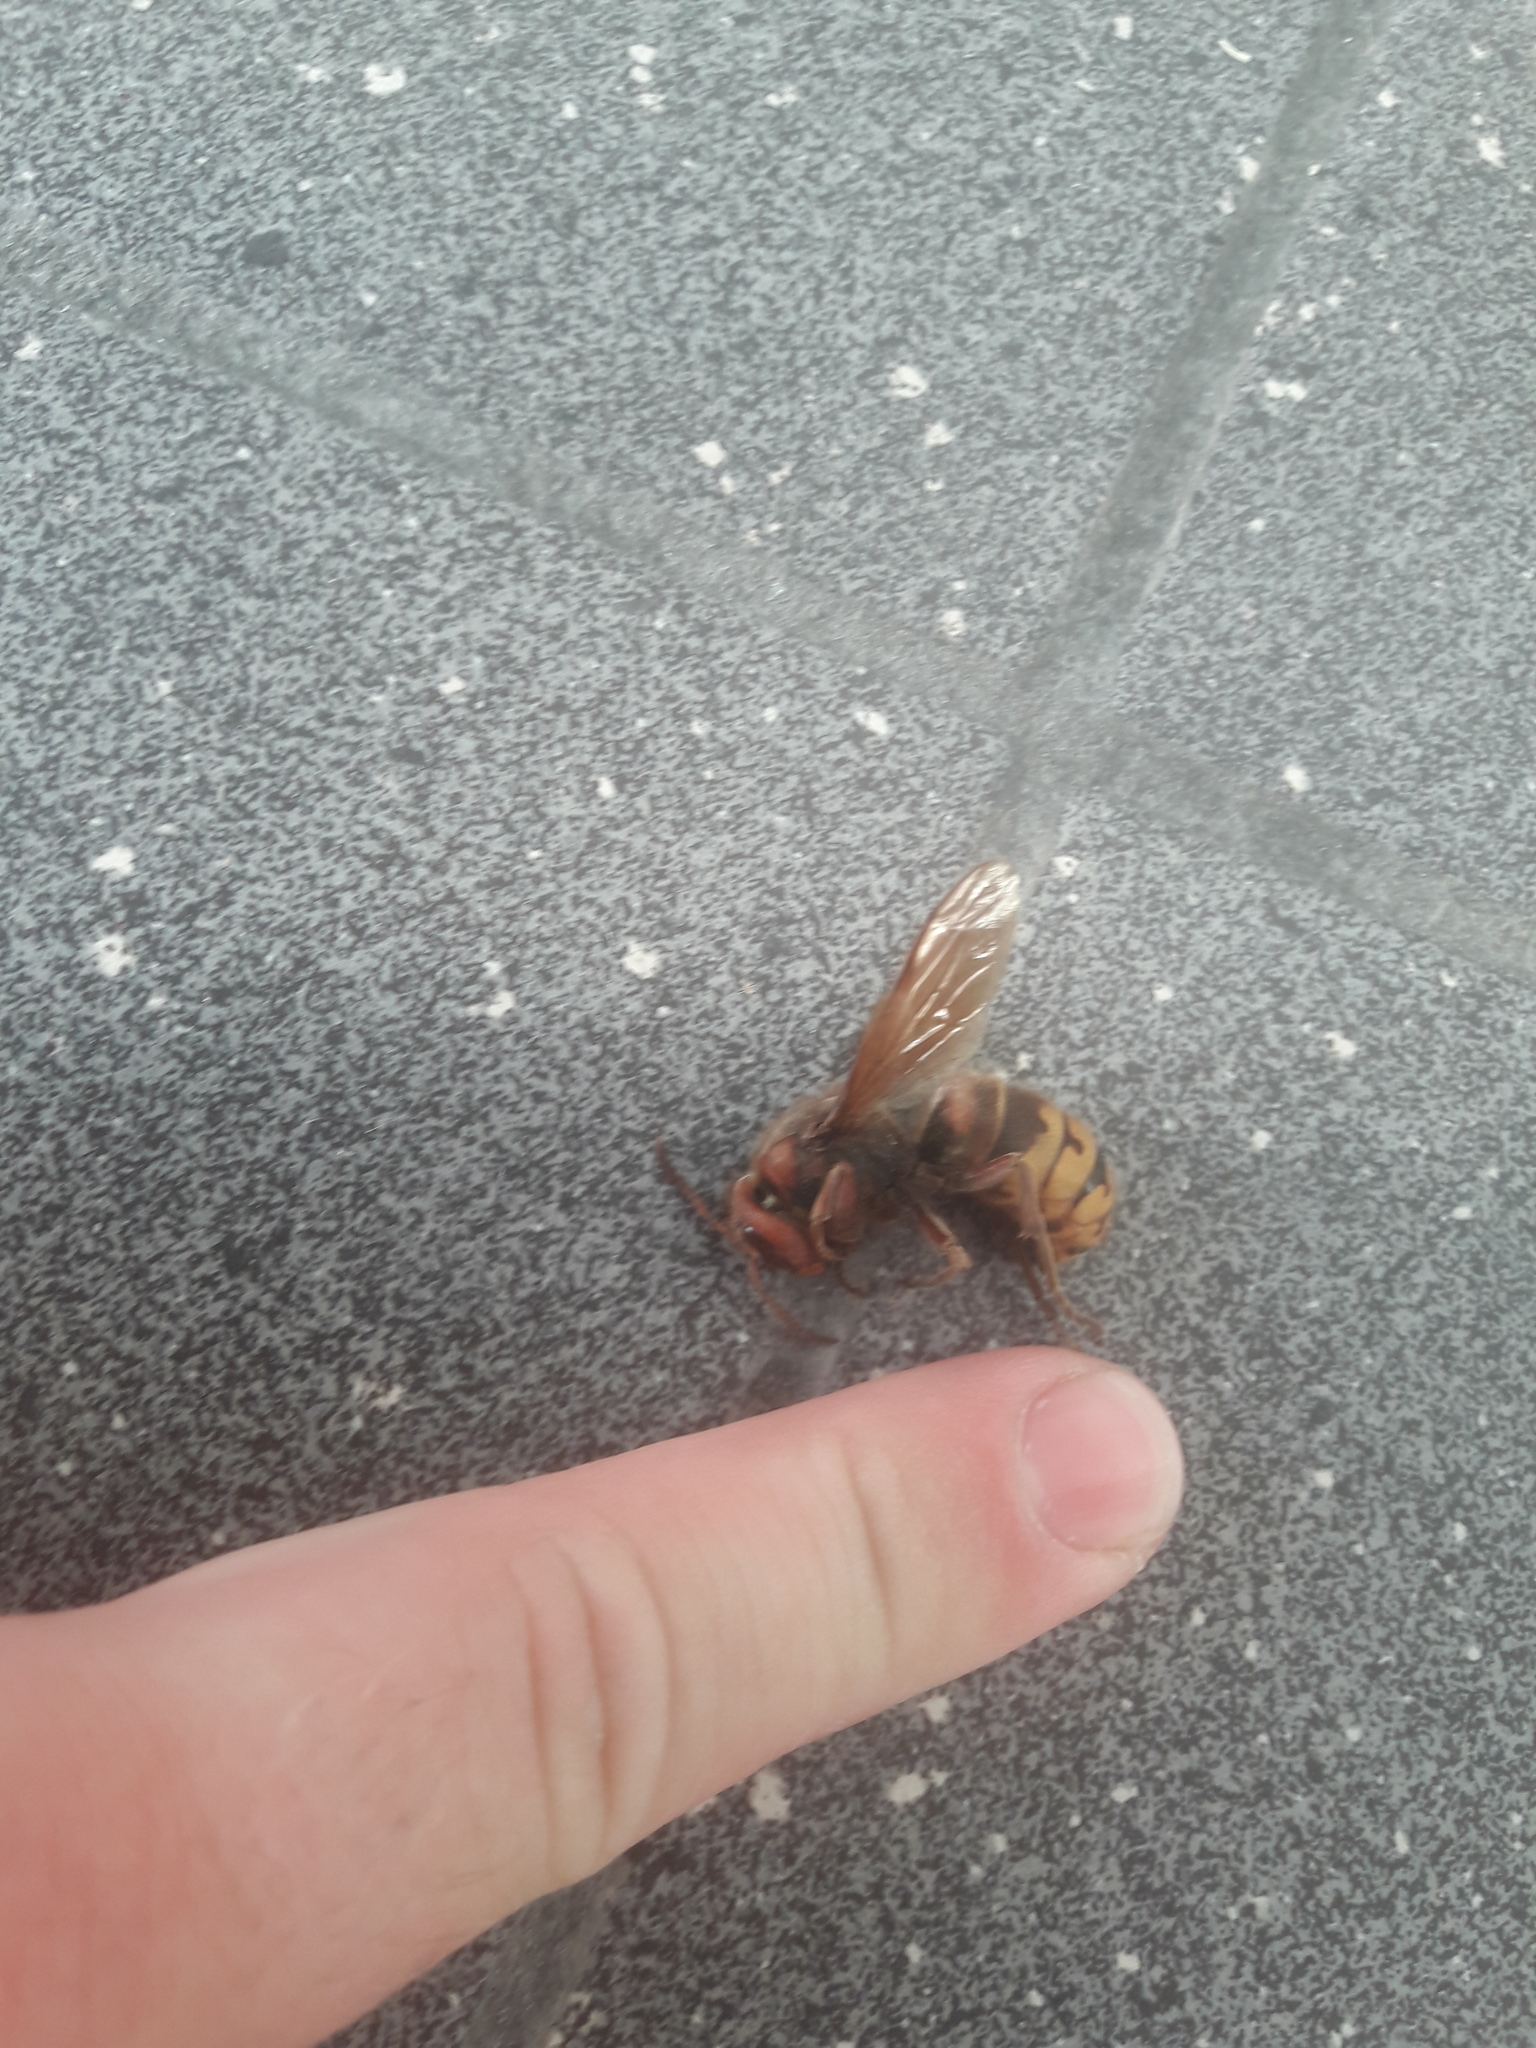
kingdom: Animalia
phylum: Arthropoda
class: Insecta
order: Hymenoptera
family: Vespidae
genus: Vespa
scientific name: Vespa crabro
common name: Hornet
